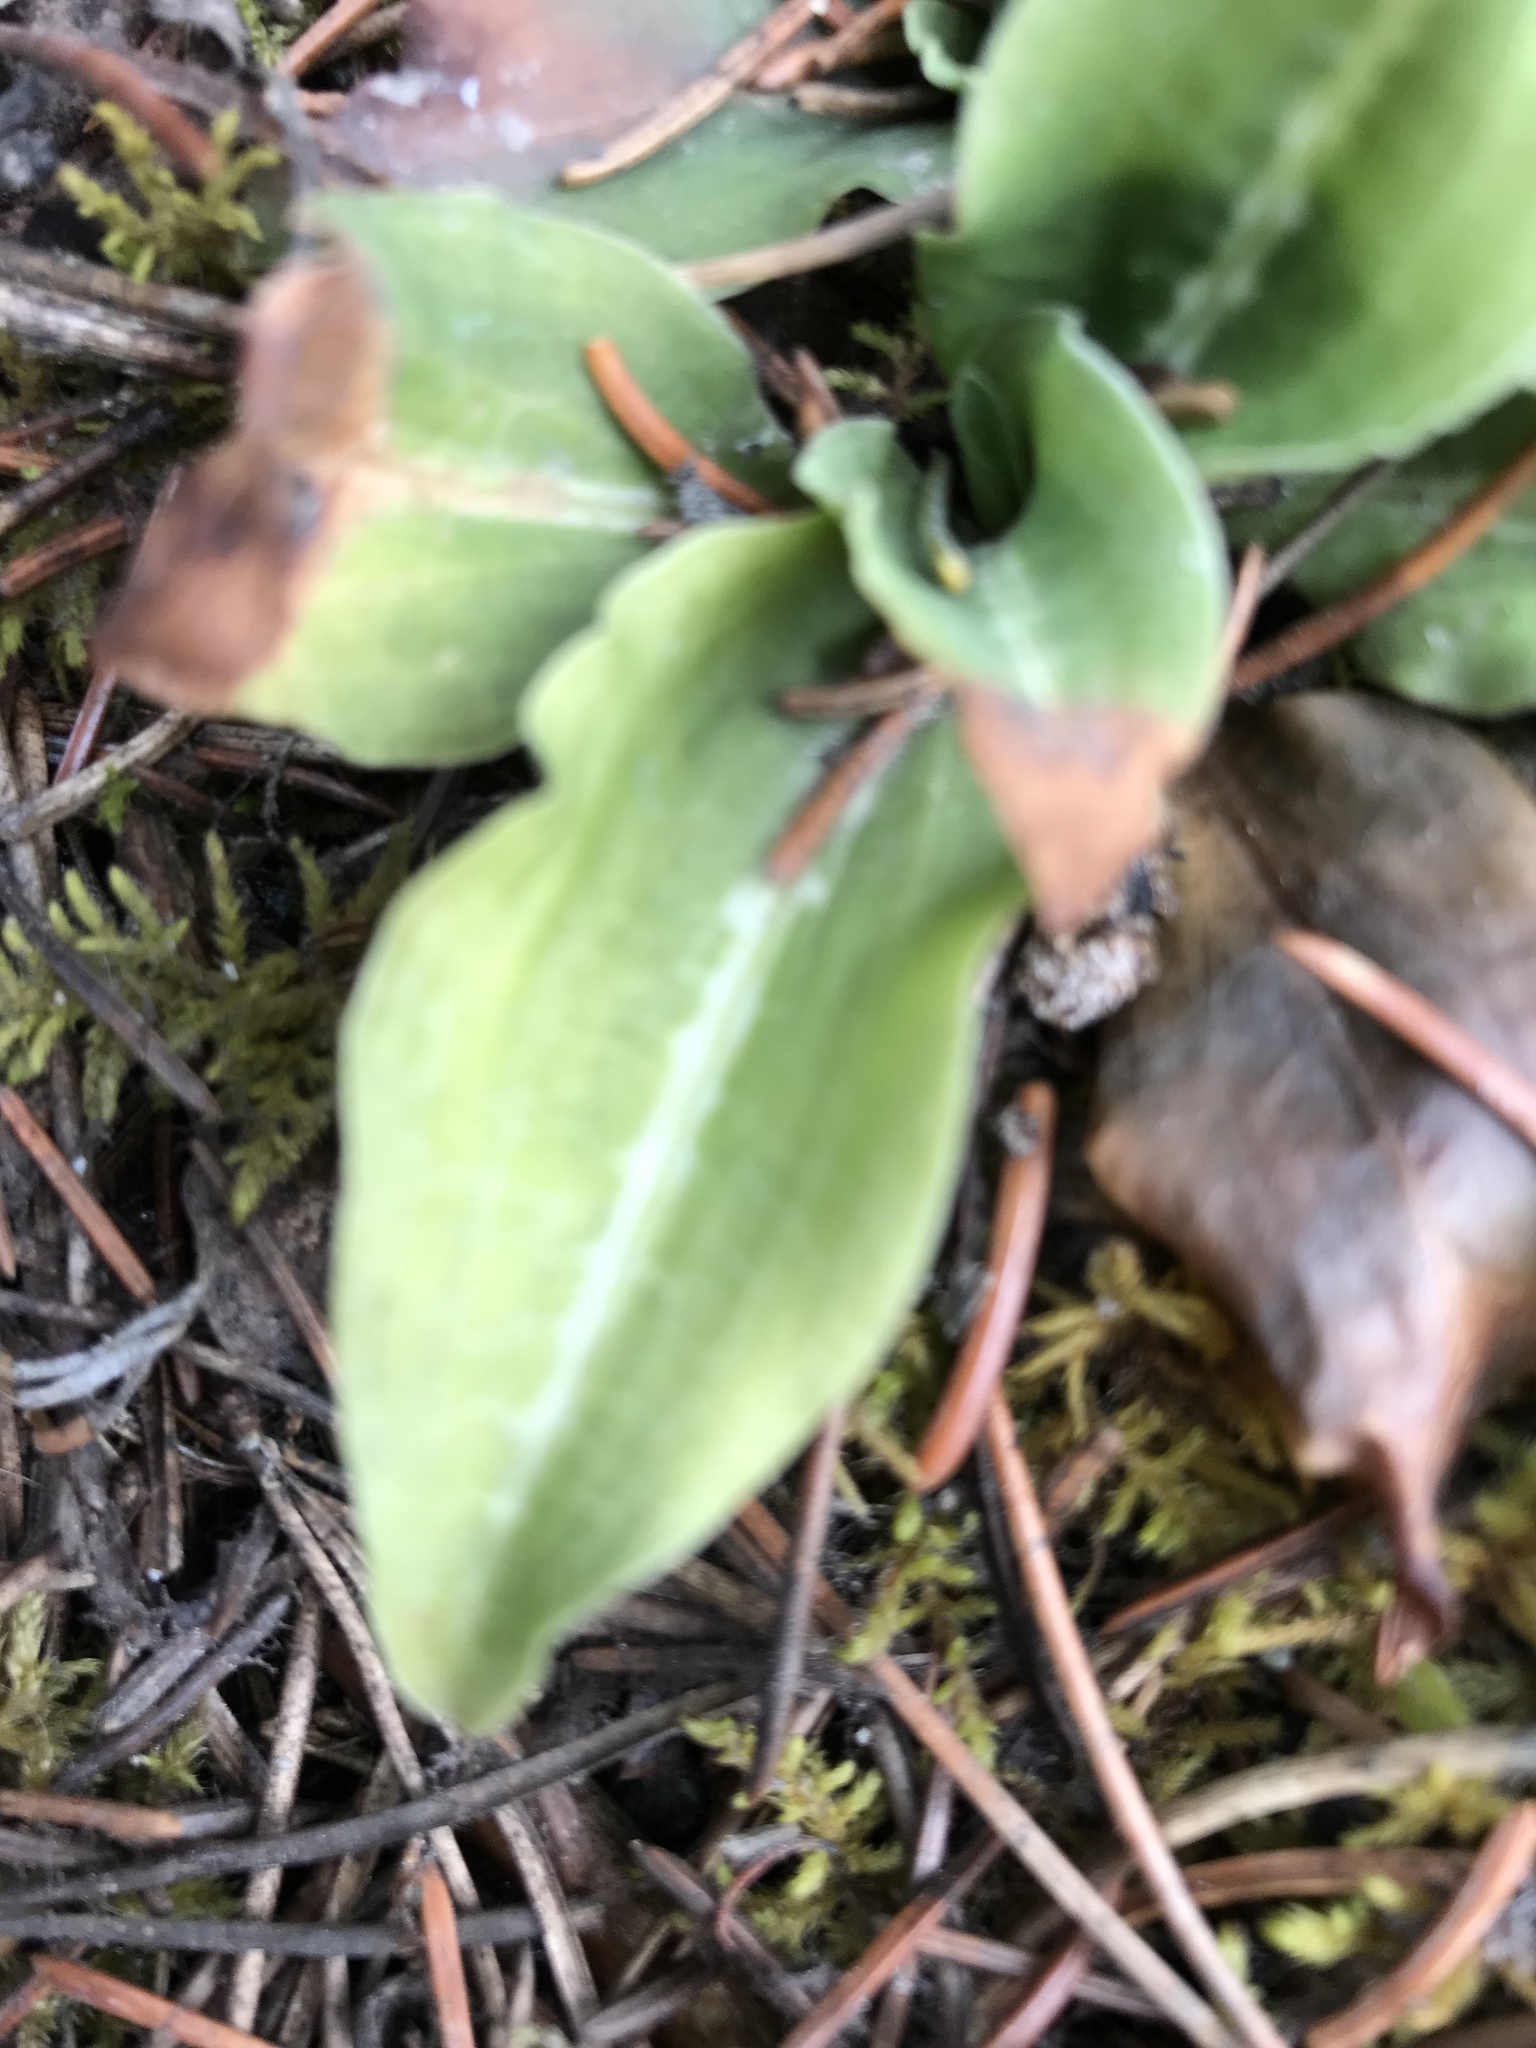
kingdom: Plantae
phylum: Tracheophyta
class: Liliopsida
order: Asparagales
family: Orchidaceae
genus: Goodyera
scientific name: Goodyera oblongifolia
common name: Giant rattlesnake-plantain
